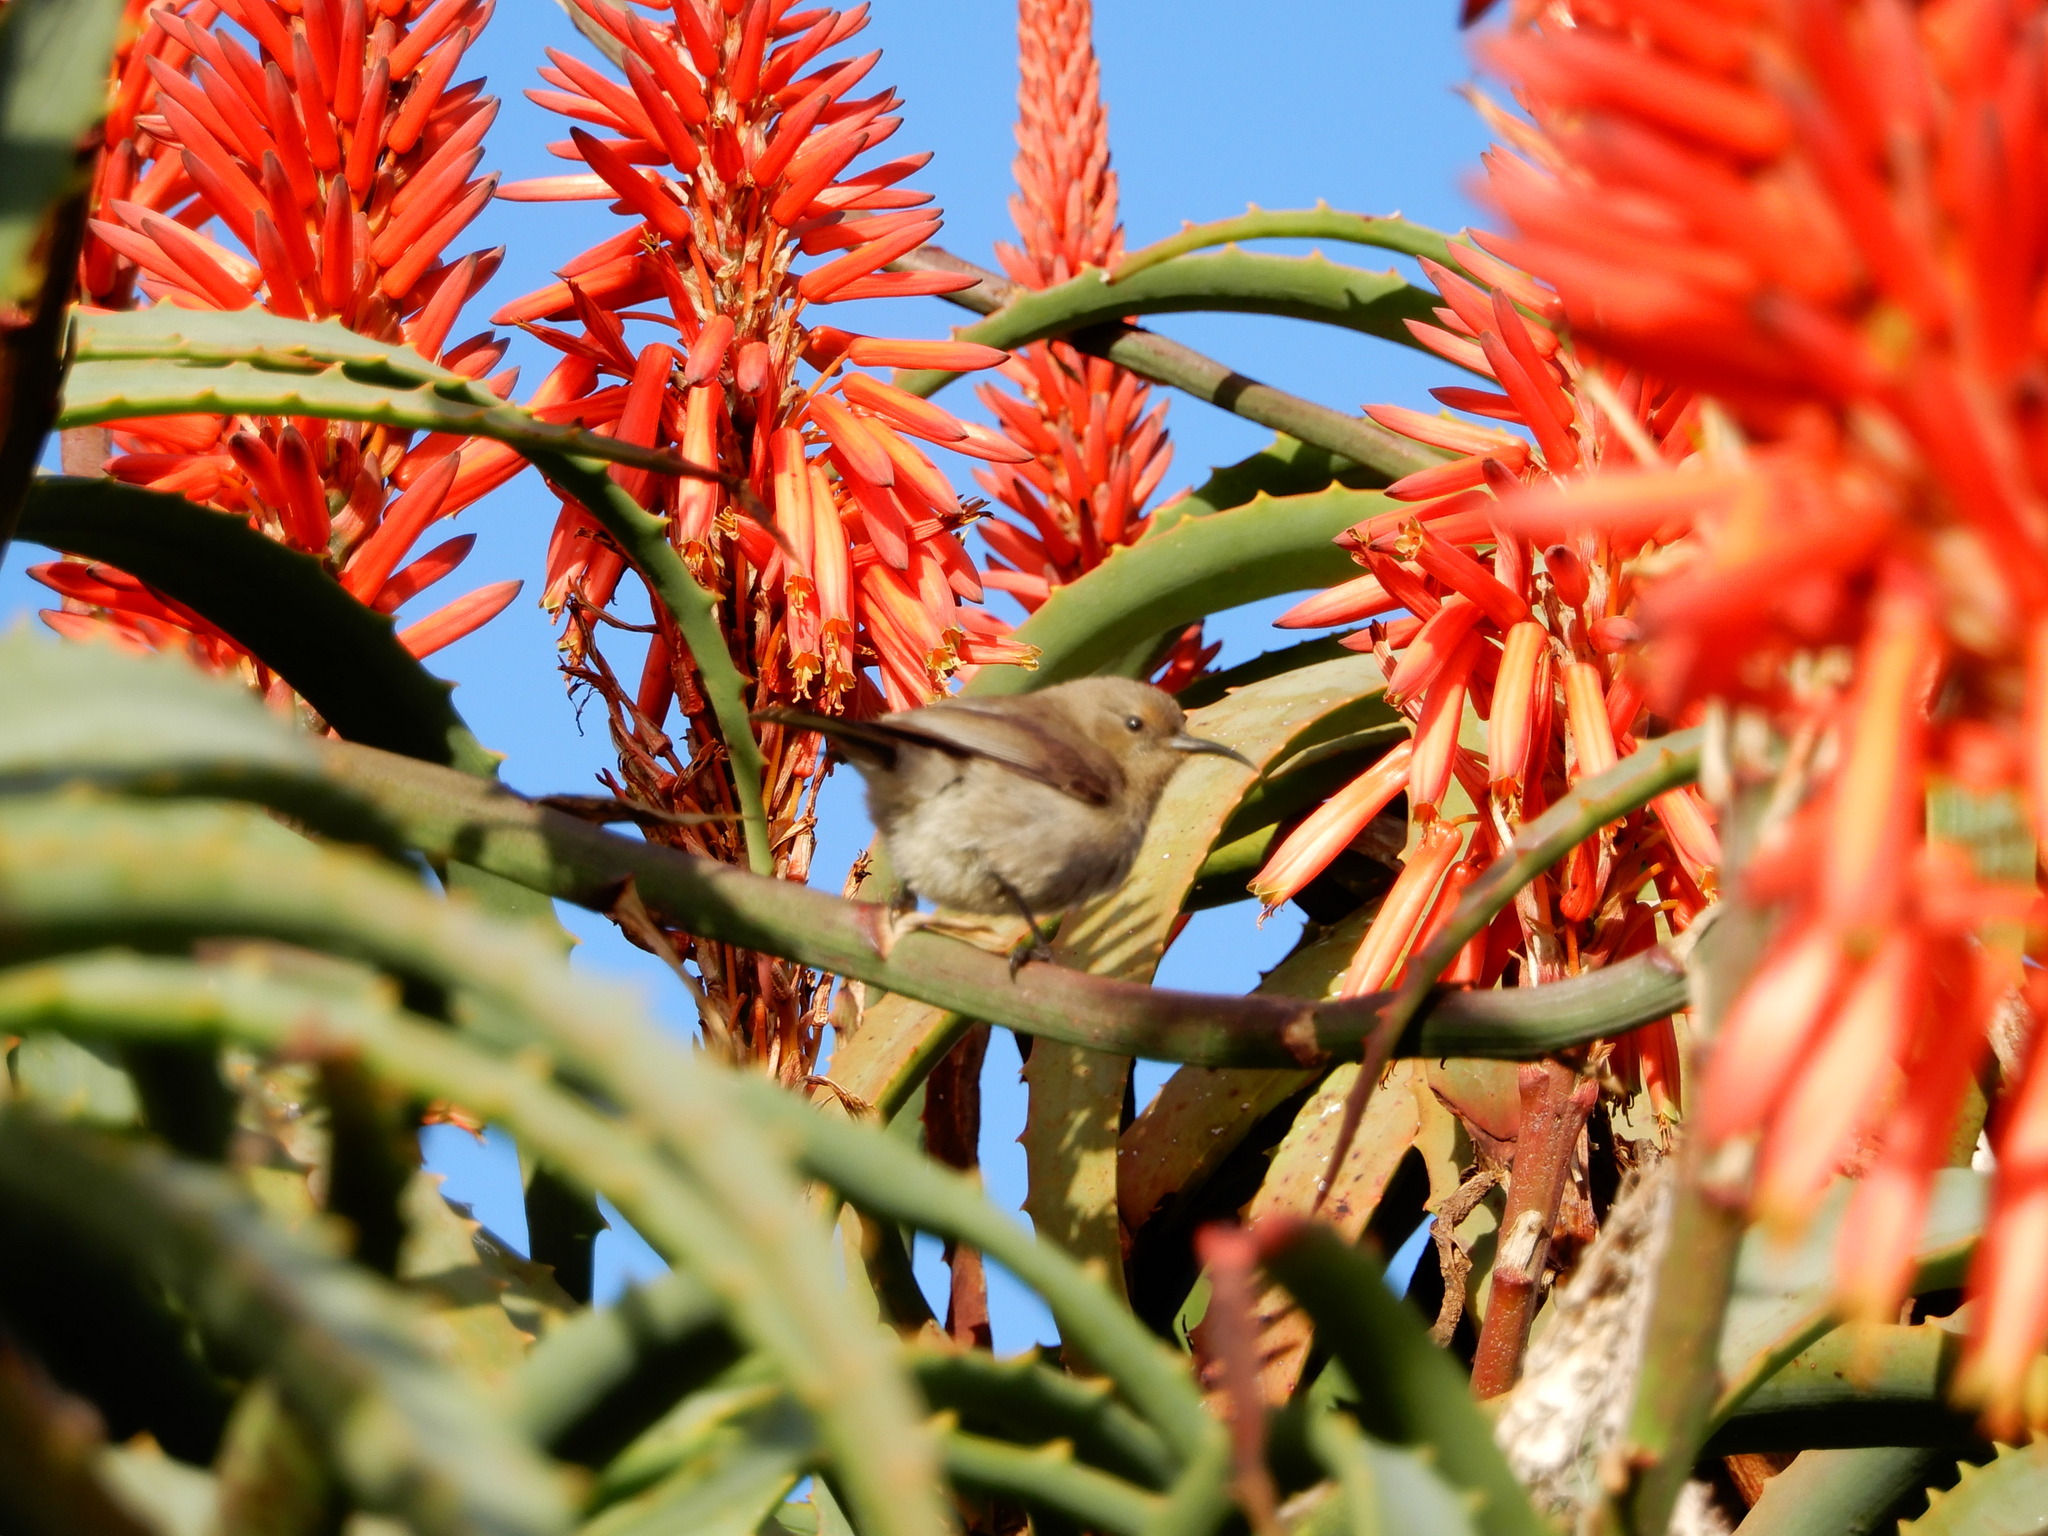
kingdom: Animalia
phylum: Chordata
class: Aves
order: Passeriformes
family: Nectariniidae
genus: Anthobaphes
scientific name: Anthobaphes violacea
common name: Orange-breasted sunbird
